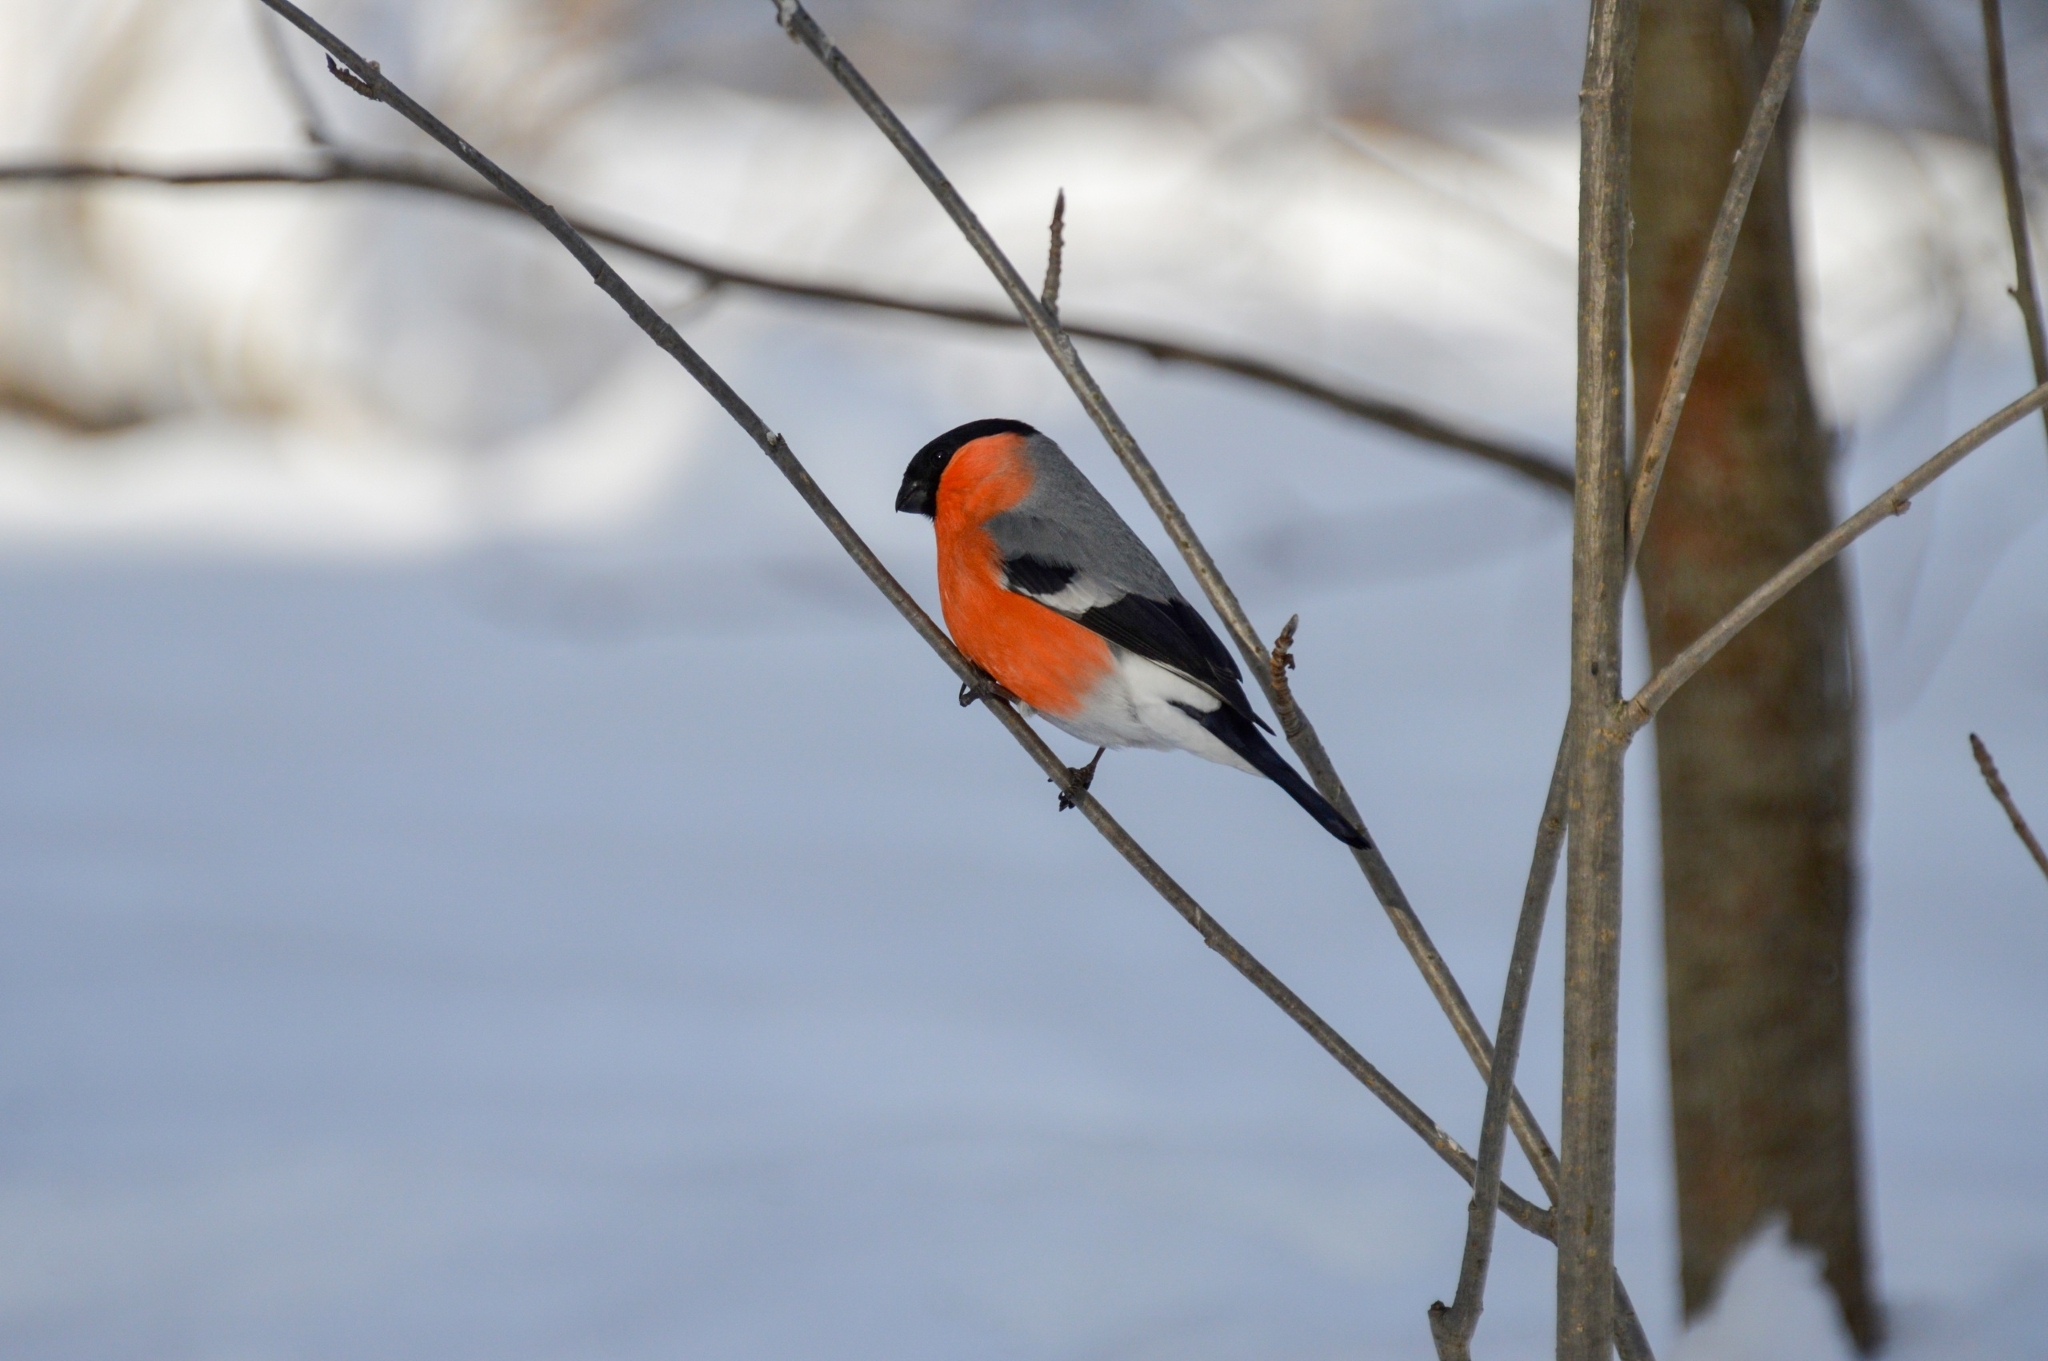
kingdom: Animalia
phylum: Chordata
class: Aves
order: Passeriformes
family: Fringillidae
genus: Pyrrhula
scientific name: Pyrrhula pyrrhula
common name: Eurasian bullfinch
